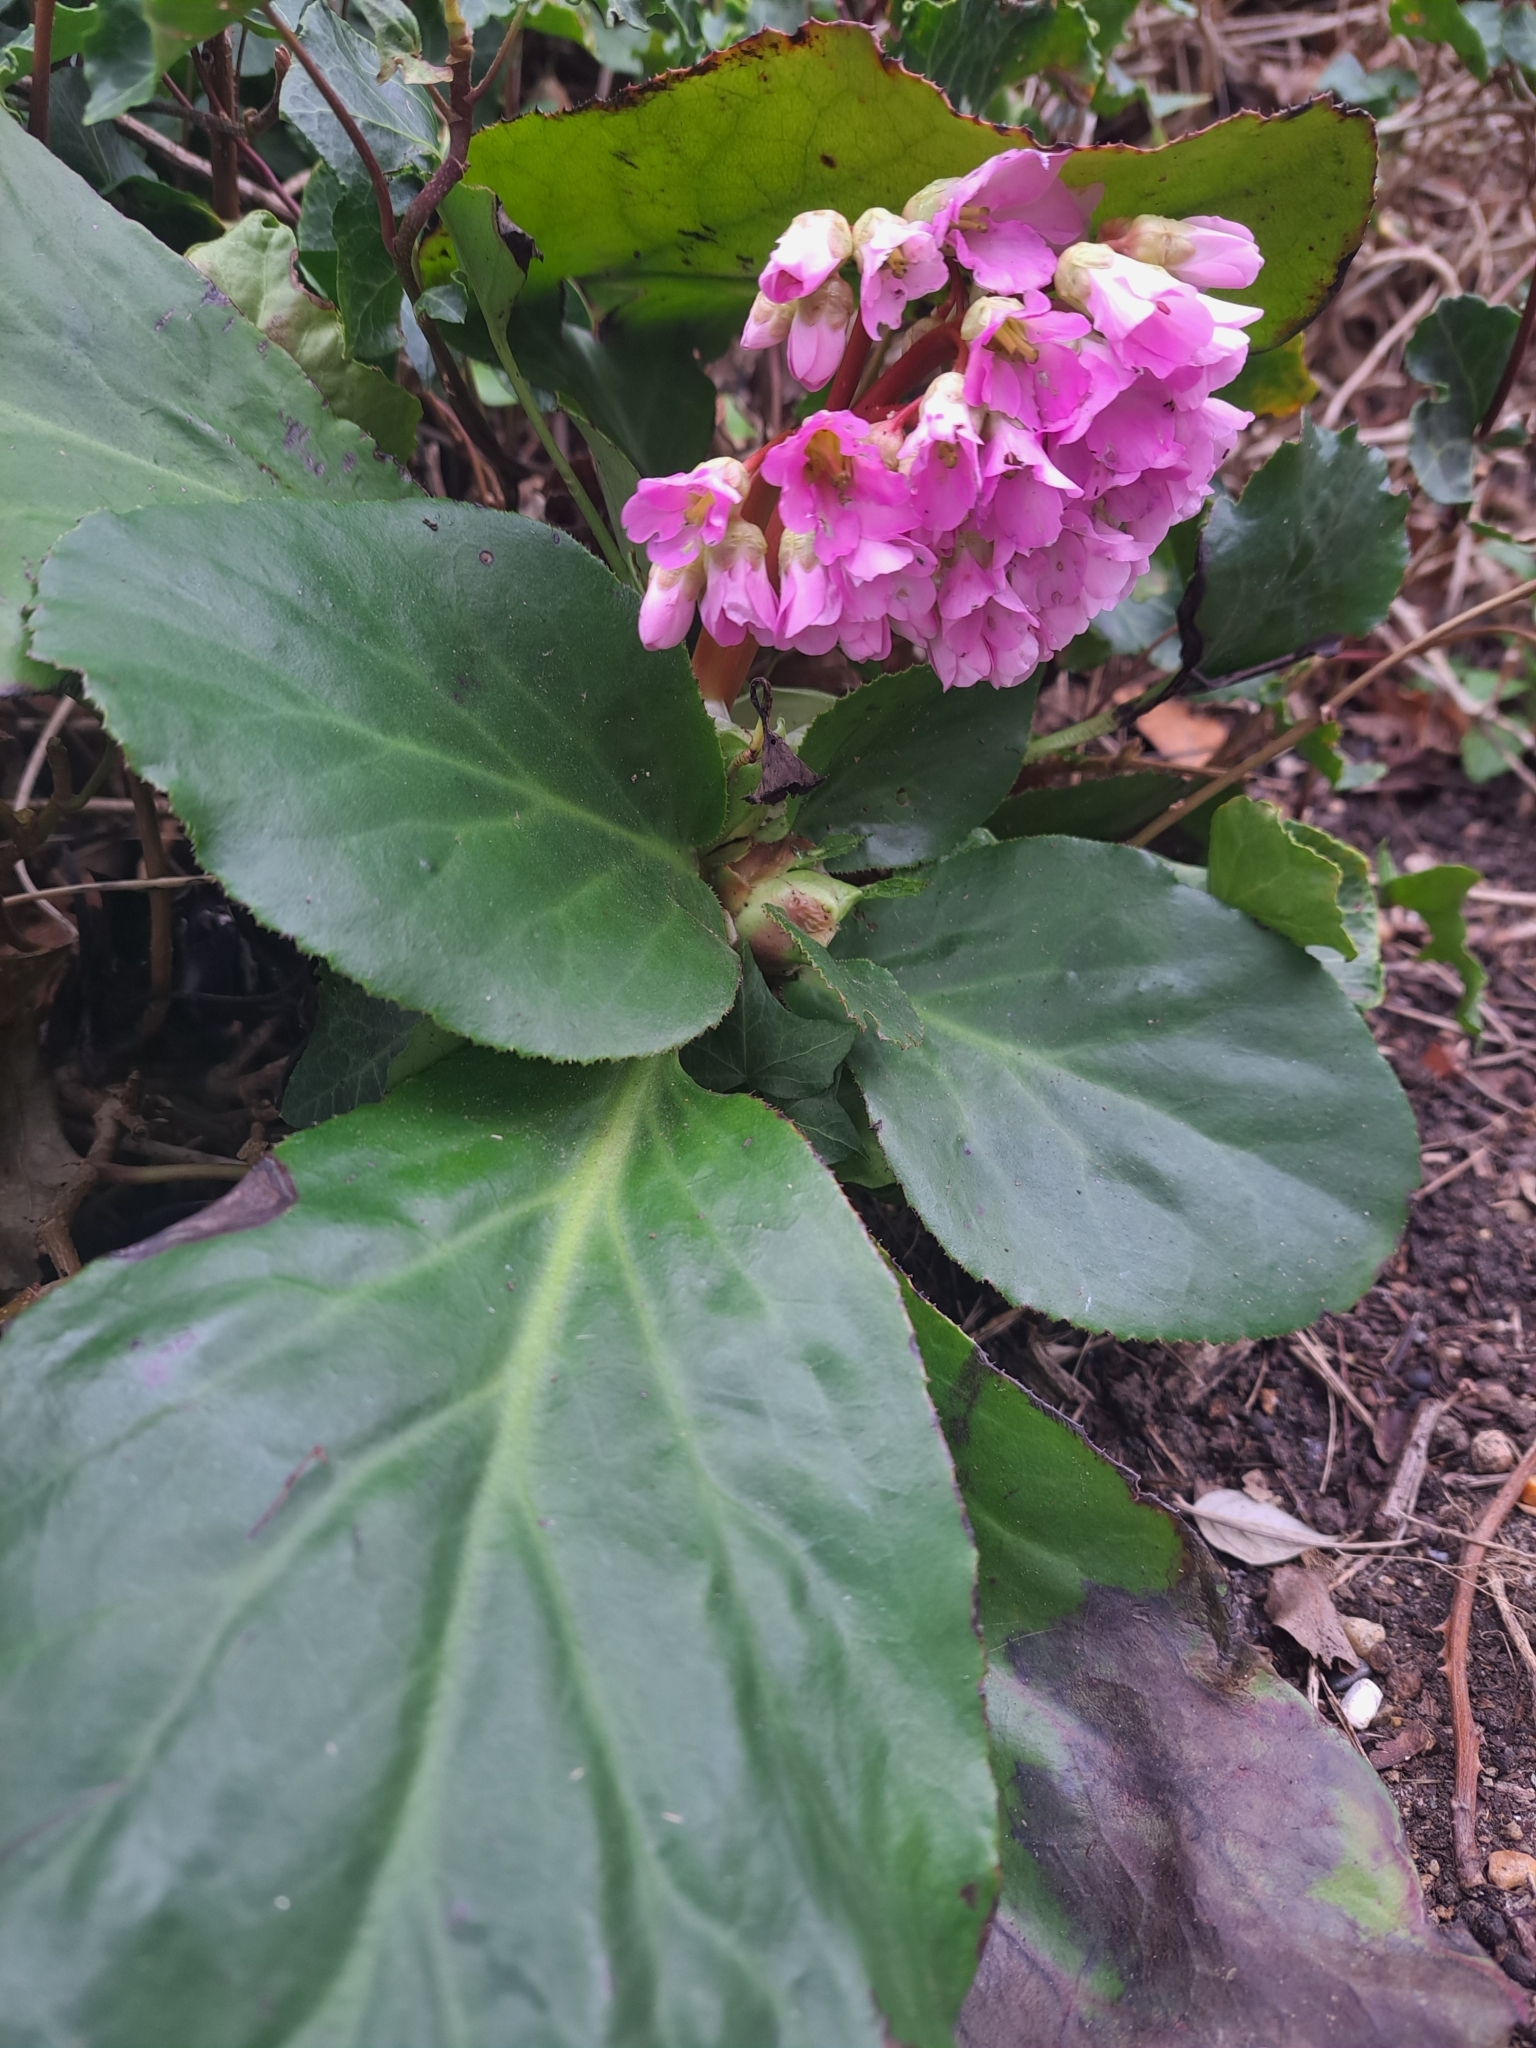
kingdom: Plantae
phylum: Tracheophyta
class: Magnoliopsida
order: Saxifragales
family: Saxifragaceae
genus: Bergenia
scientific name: Bergenia crassifolia
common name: Elephant-ears
